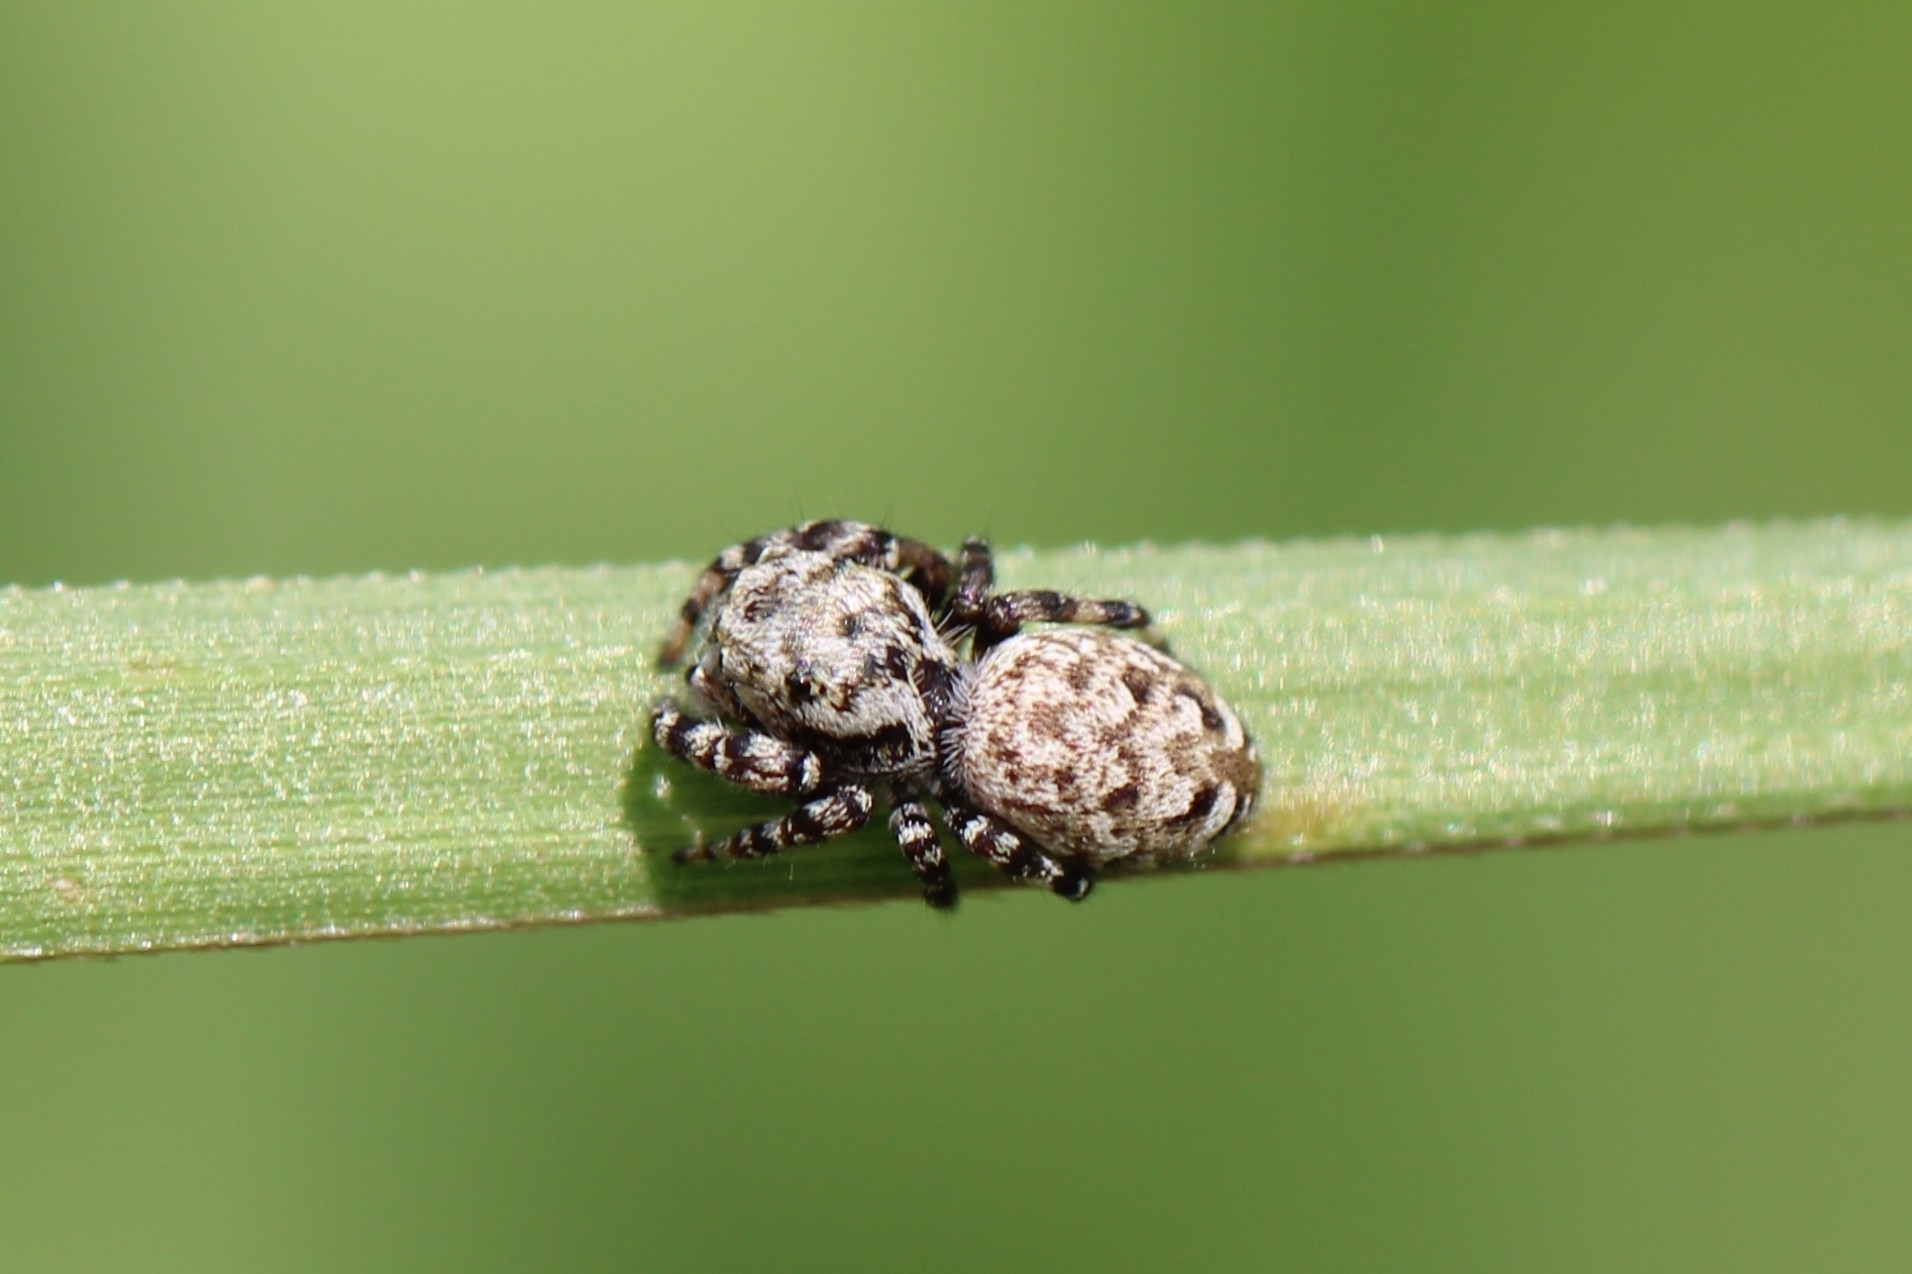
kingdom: Animalia
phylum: Arthropoda
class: Arachnida
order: Araneae
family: Salticidae
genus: Pelegrina
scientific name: Pelegrina galathea
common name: Jumping spiders
